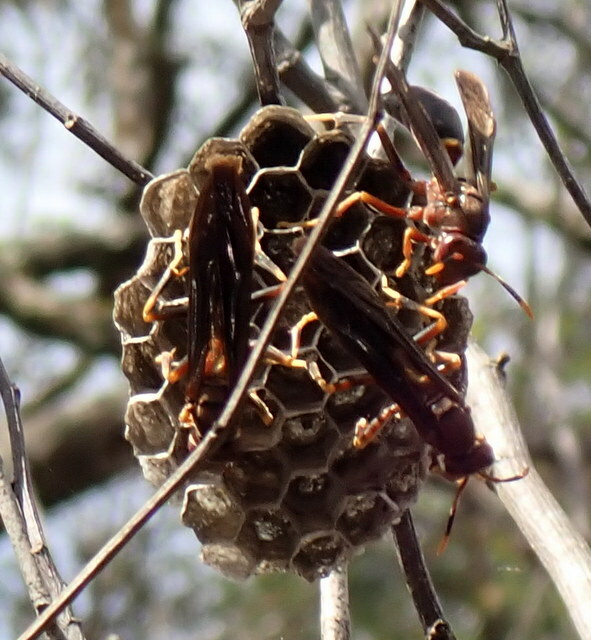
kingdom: Animalia
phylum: Arthropoda
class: Insecta
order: Hymenoptera
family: Eumenidae
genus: Polistes
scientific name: Polistes annularis
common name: Ringed paper wasp
